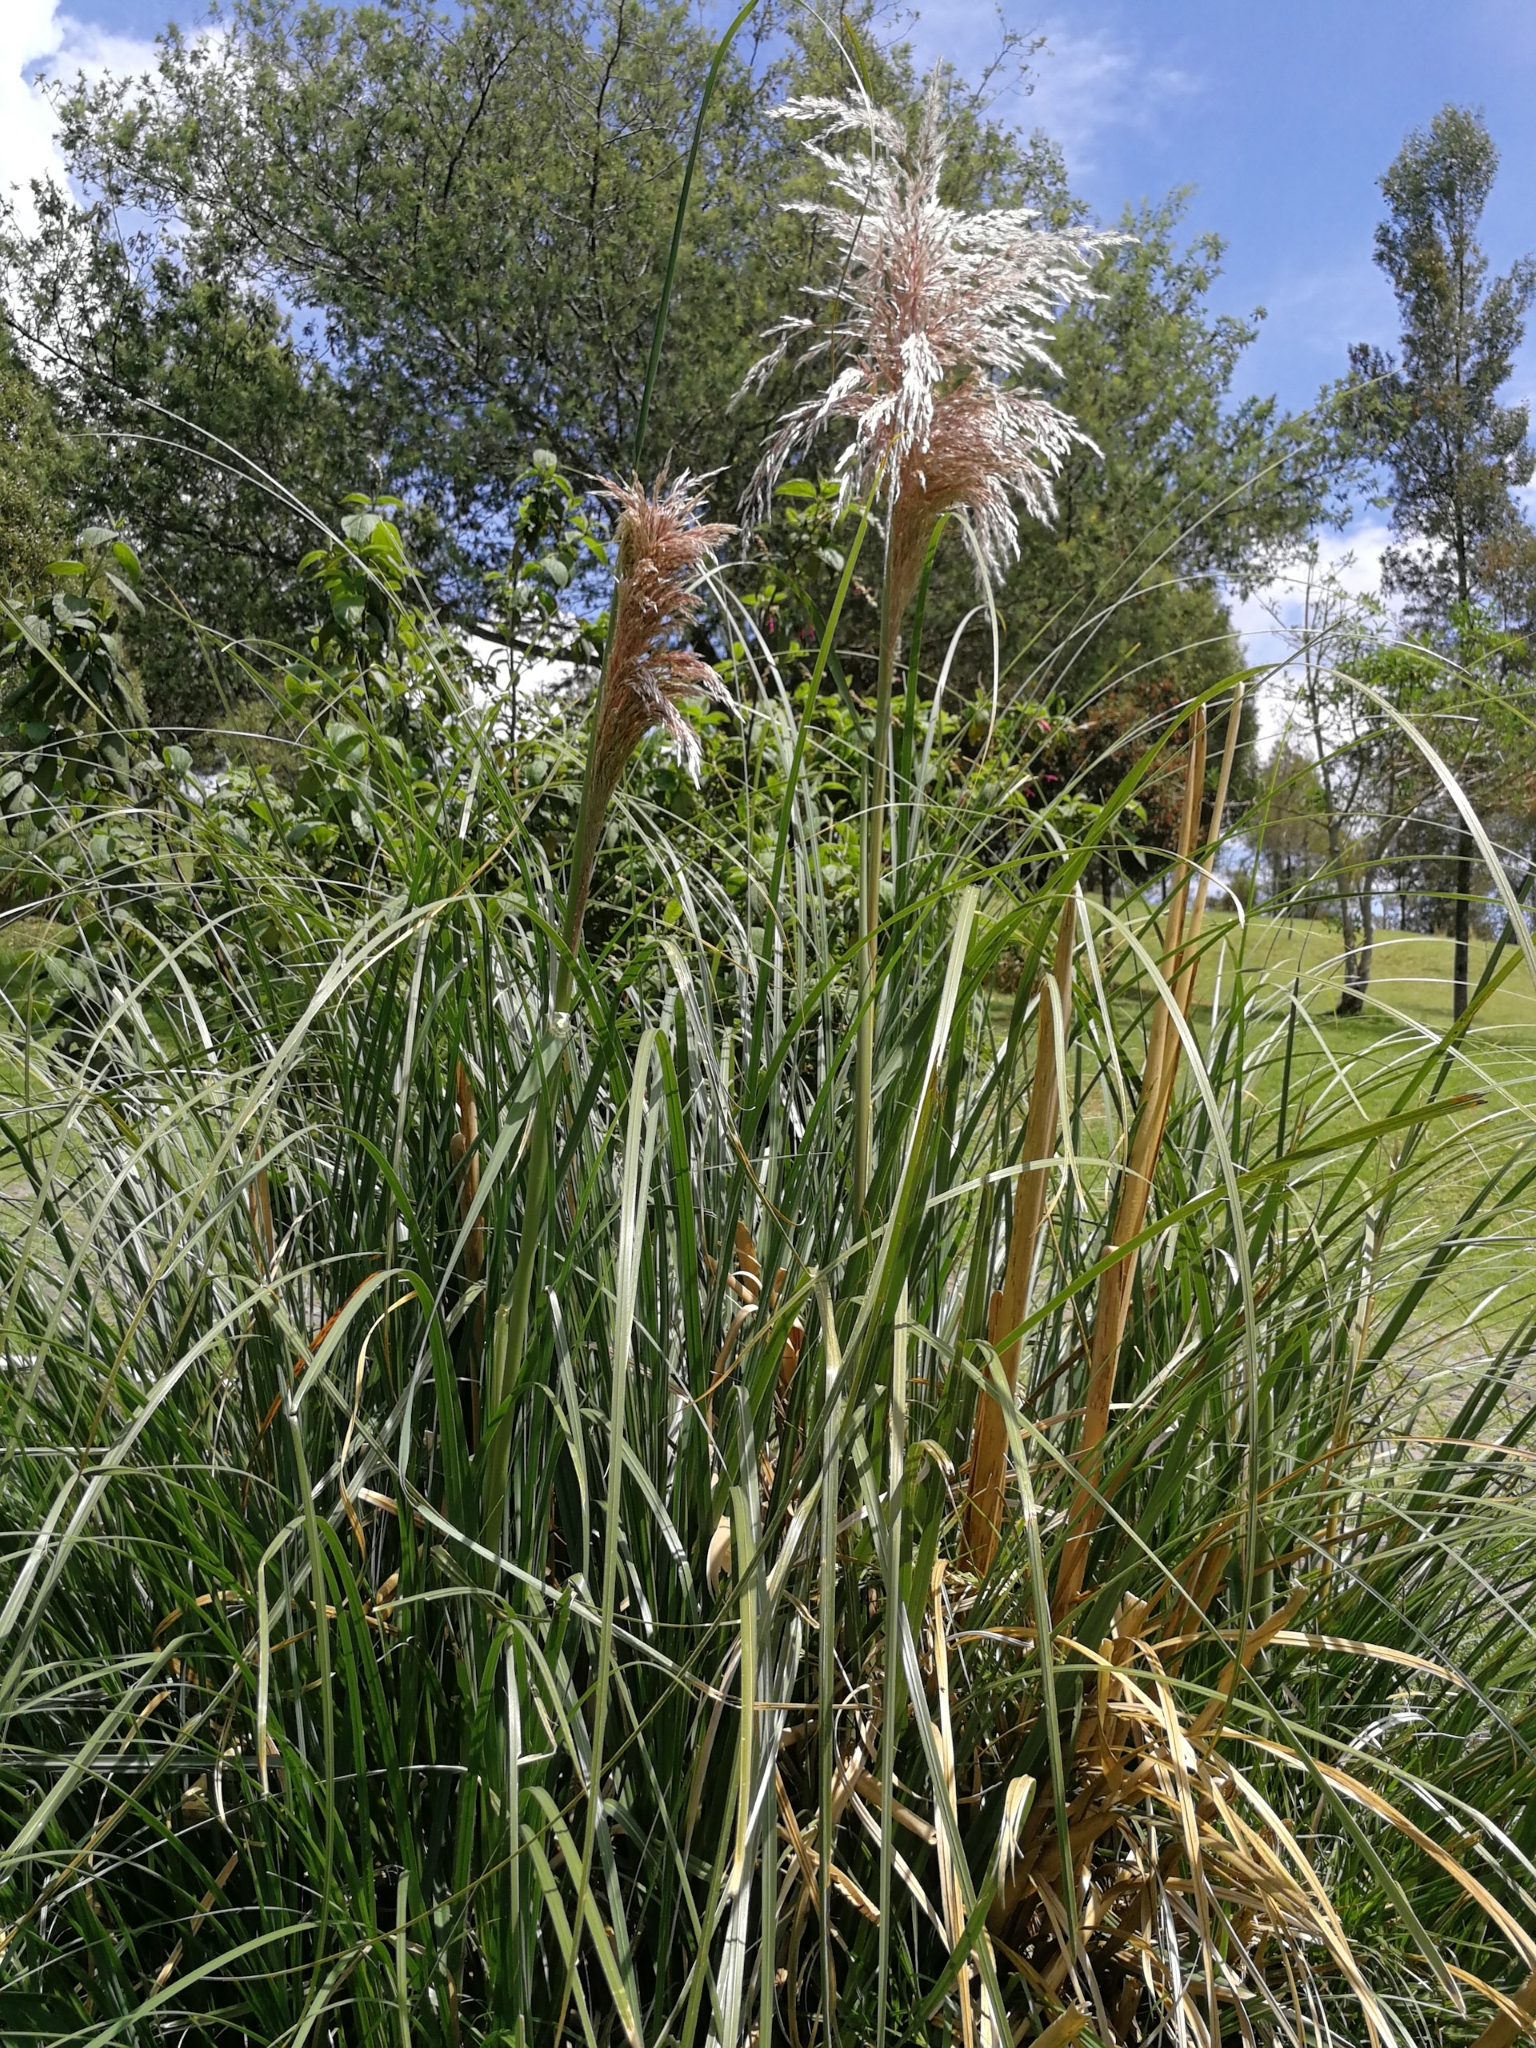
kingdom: Plantae
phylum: Tracheophyta
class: Liliopsida
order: Poales
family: Poaceae
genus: Cortaderia
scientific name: Cortaderia nitida
